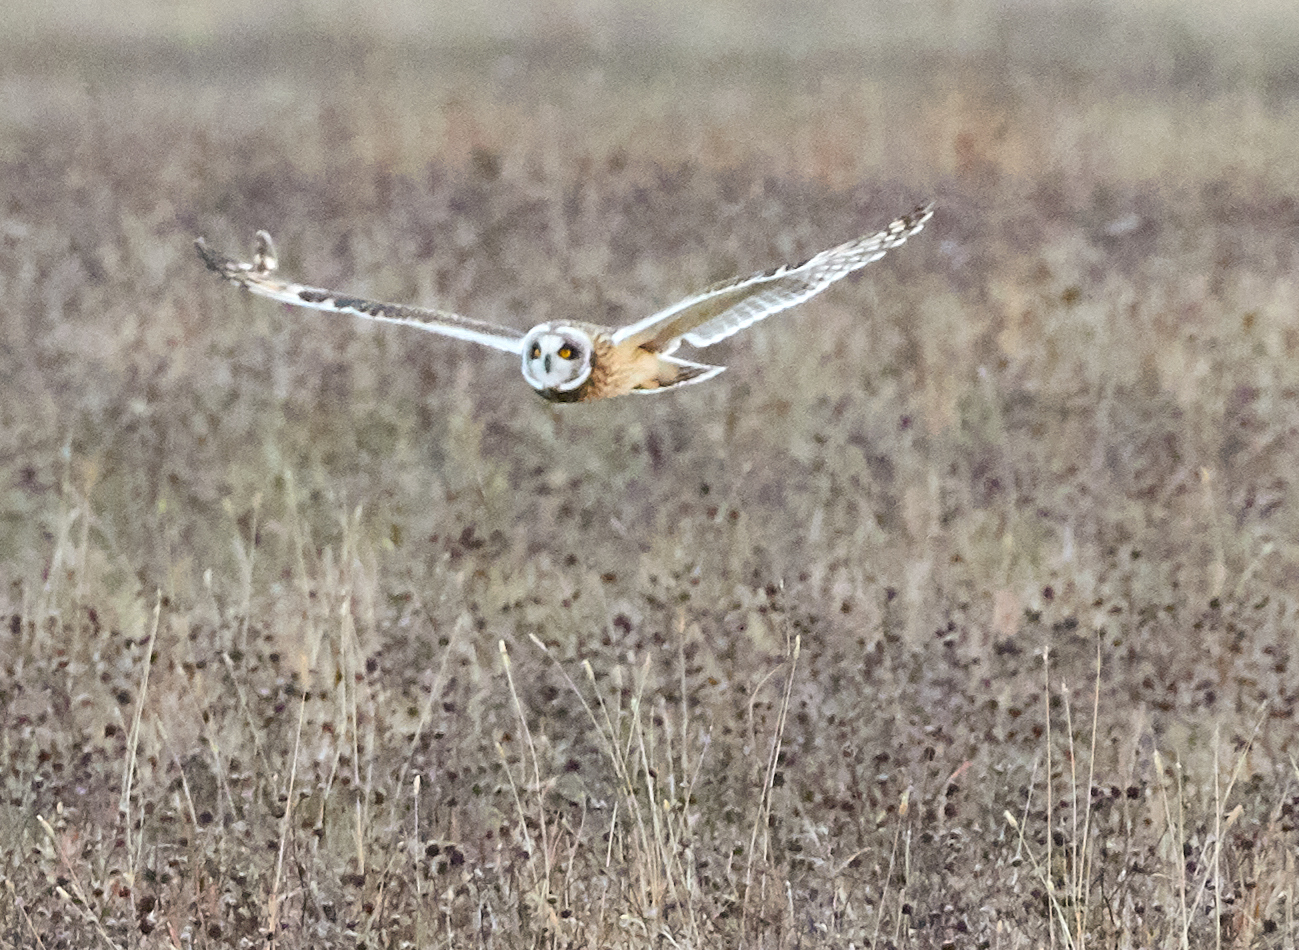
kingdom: Animalia
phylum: Chordata
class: Aves
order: Strigiformes
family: Strigidae
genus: Asio
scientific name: Asio flammeus
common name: Short-eared owl
